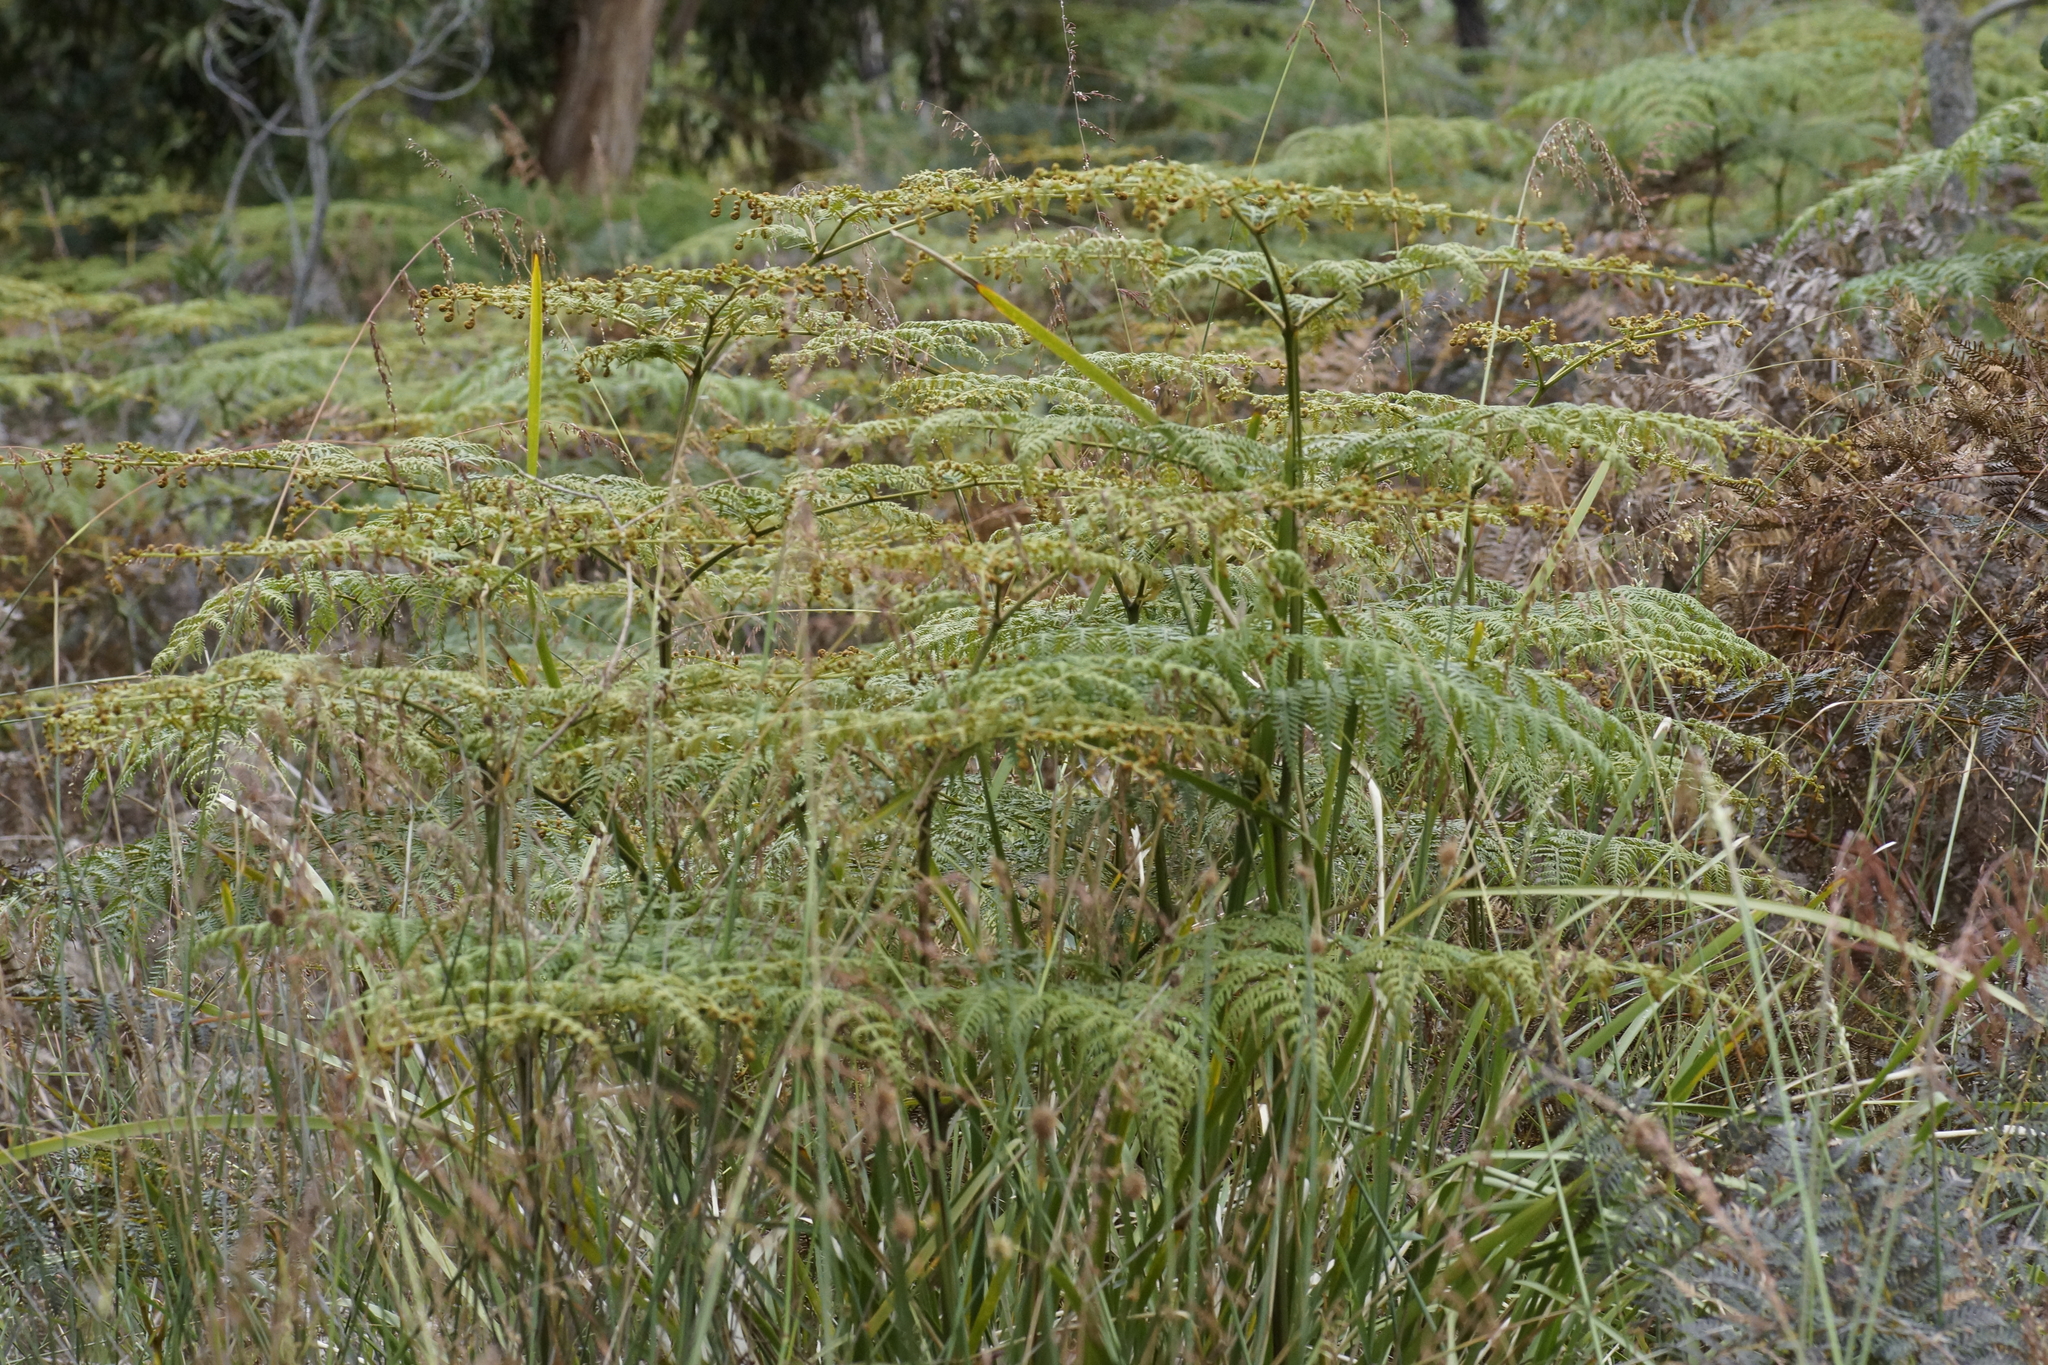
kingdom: Plantae
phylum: Tracheophyta
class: Polypodiopsida
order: Polypodiales
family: Dennstaedtiaceae
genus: Pteridium
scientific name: Pteridium esculentum
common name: Bracken fern
